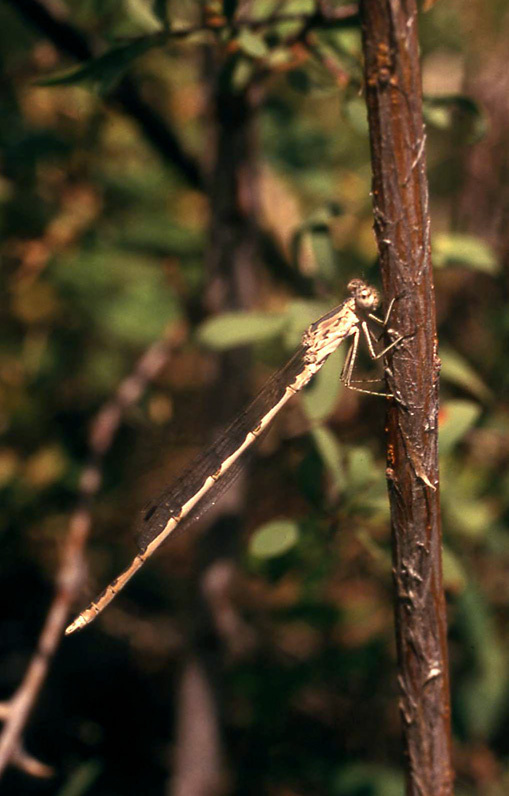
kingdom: Animalia
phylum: Arthropoda
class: Insecta
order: Odonata
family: Lestidae
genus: Sympecma
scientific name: Sympecma gobica
